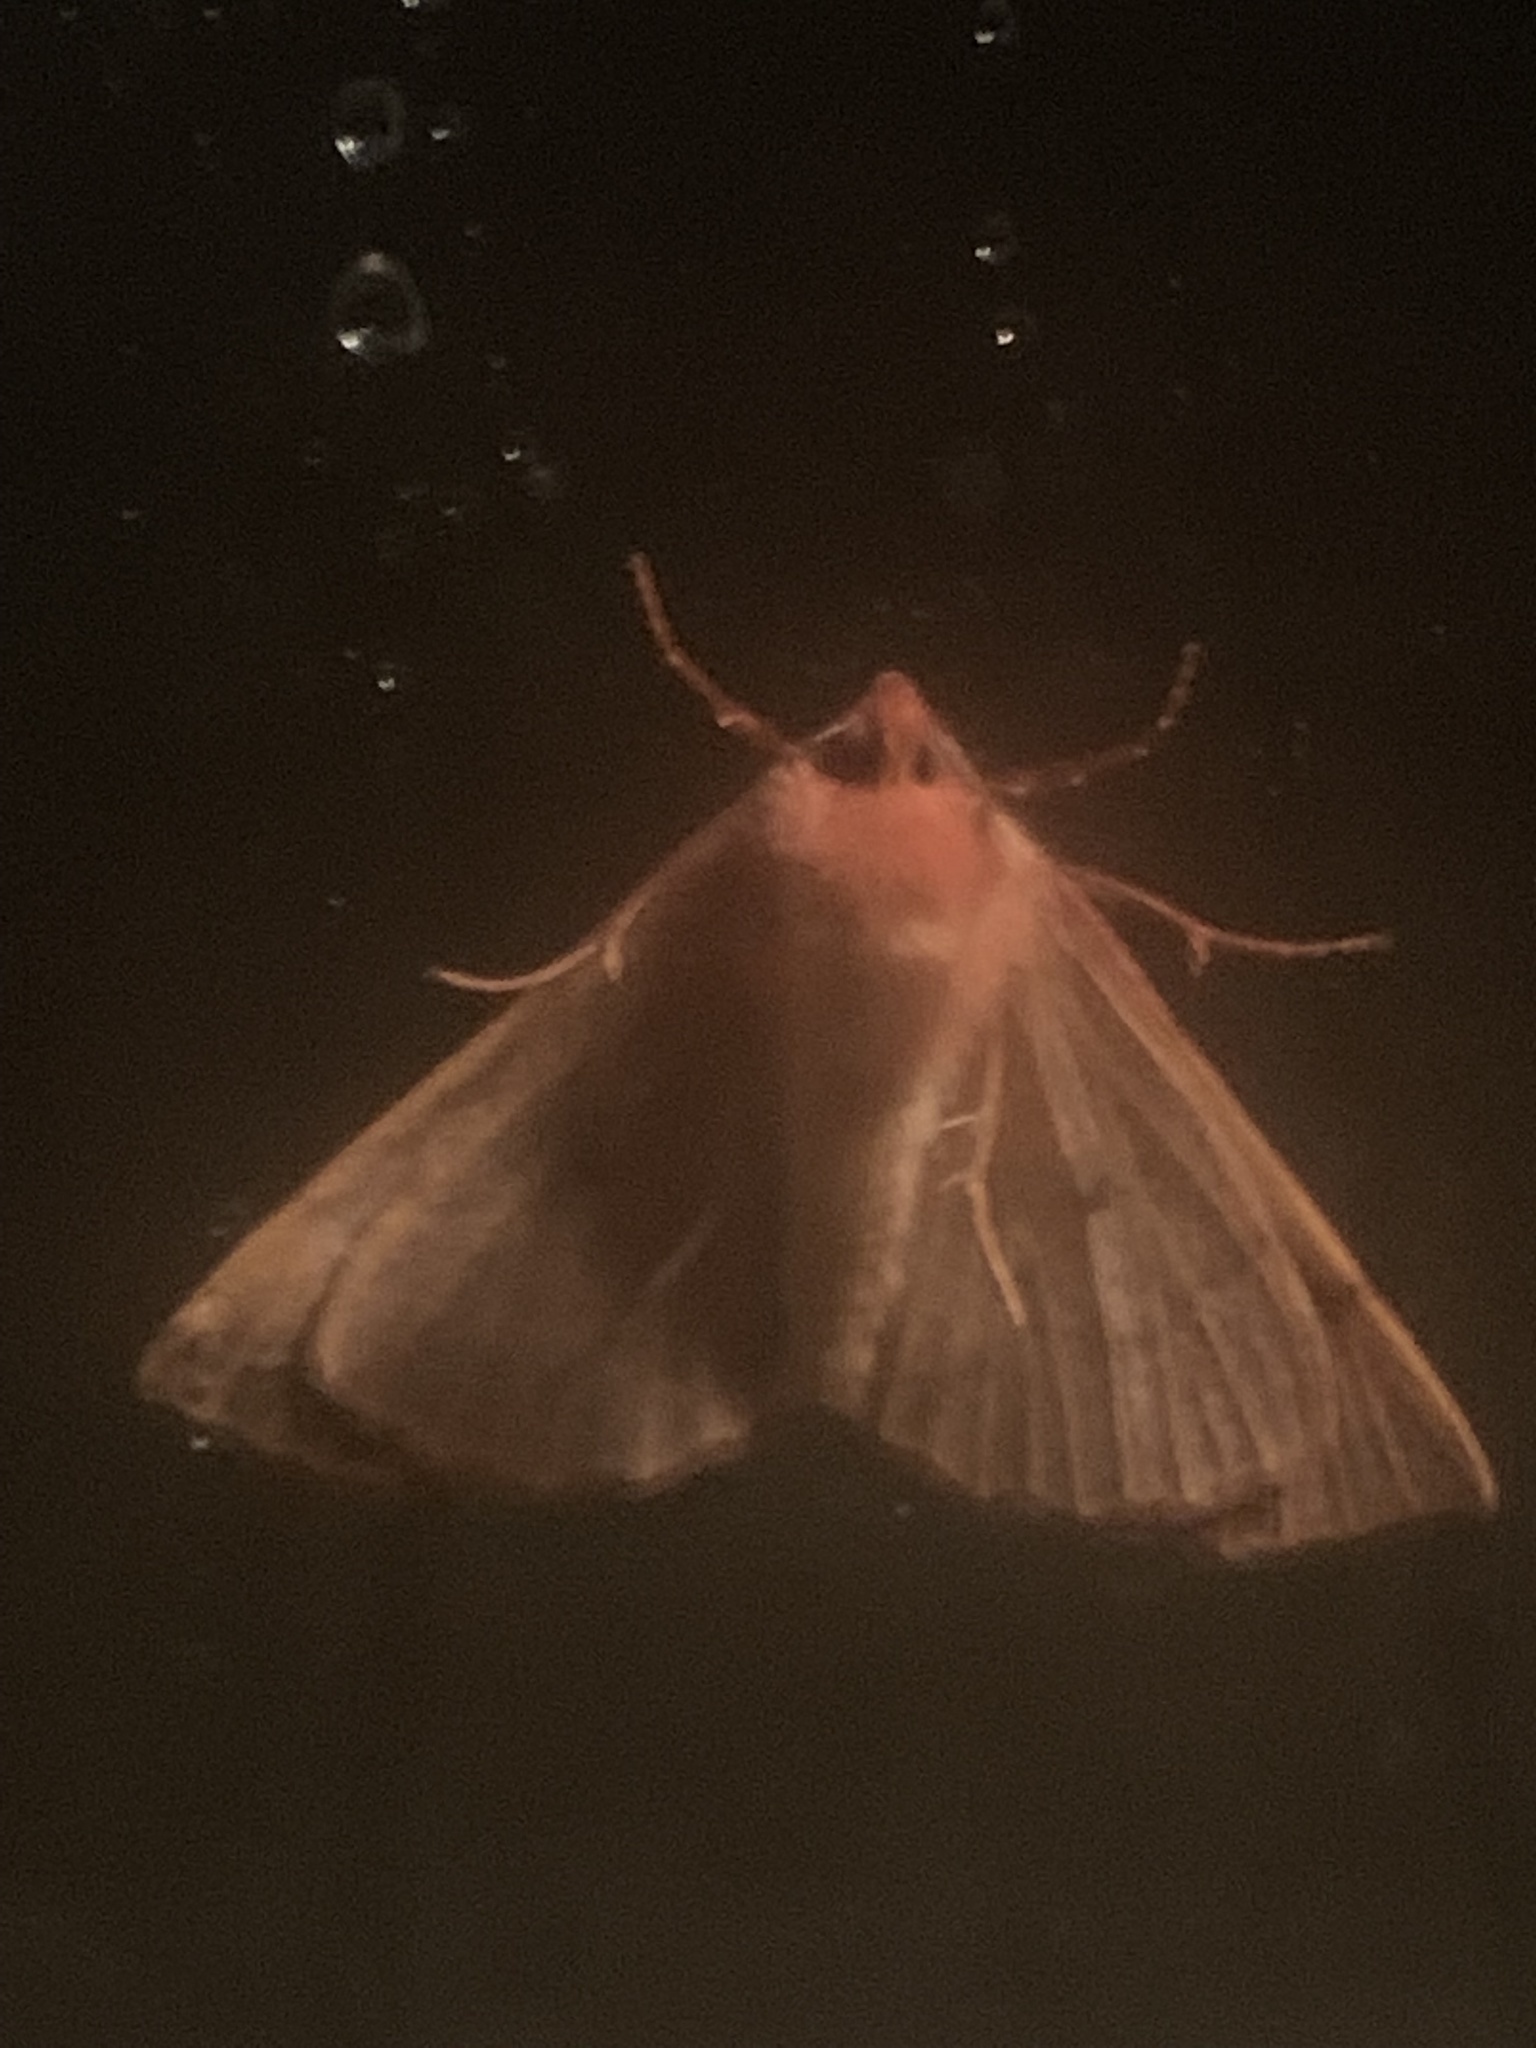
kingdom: Animalia
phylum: Arthropoda
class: Insecta
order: Lepidoptera
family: Geometridae
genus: Colotois
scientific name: Colotois pennaria
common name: Feathered thorn
